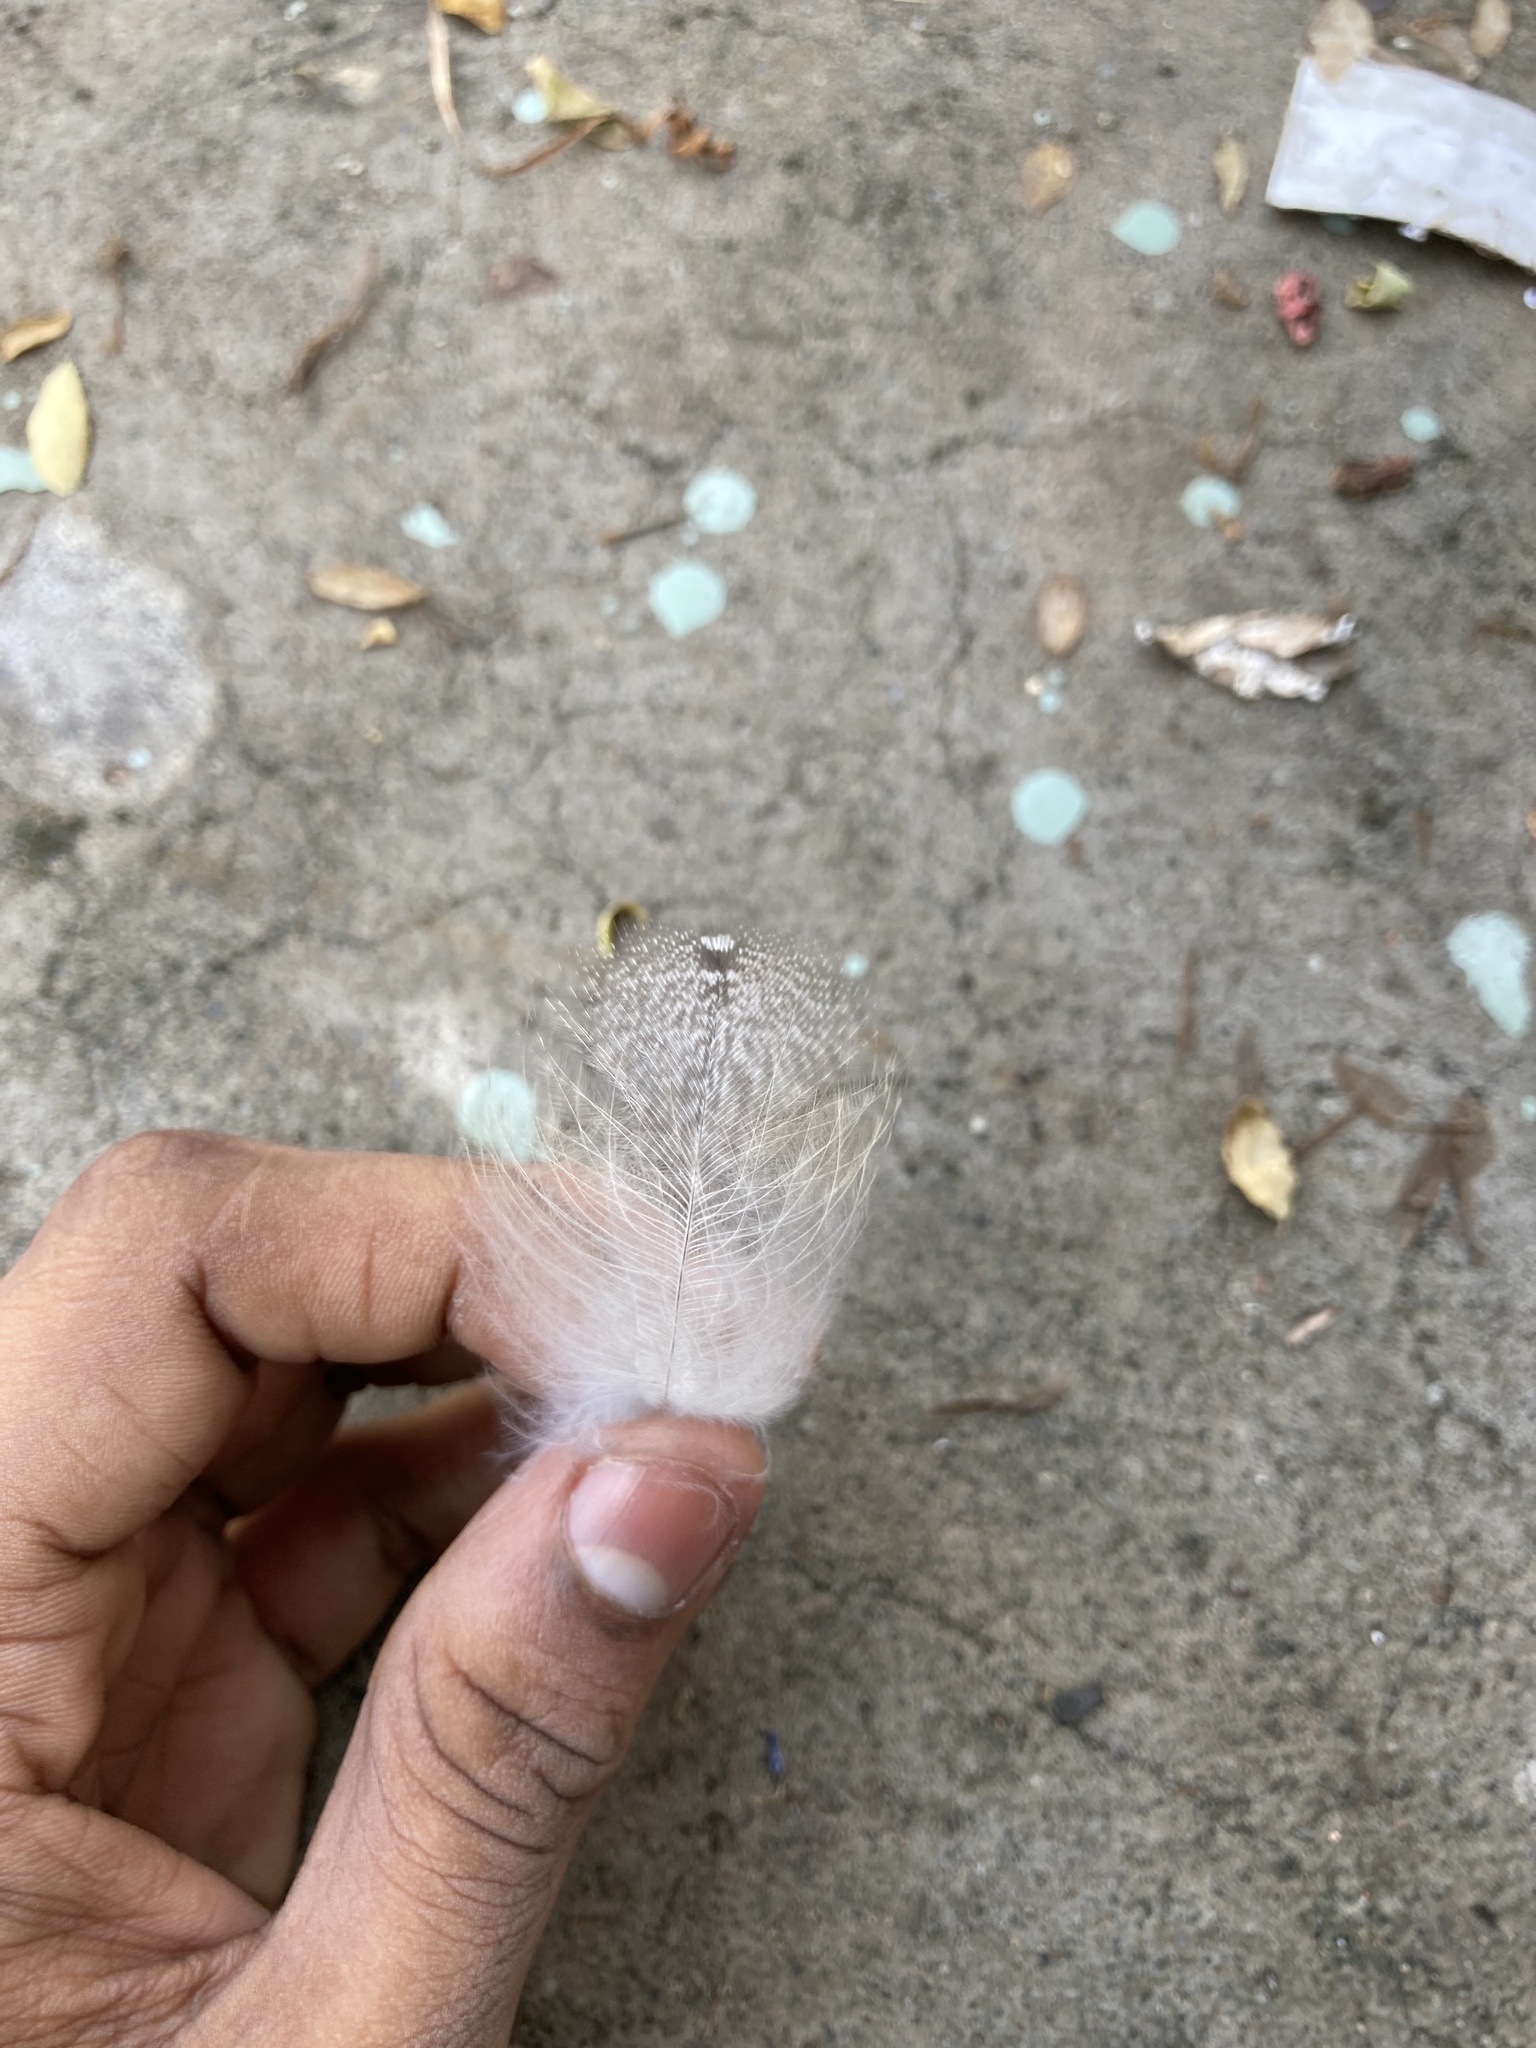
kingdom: Animalia
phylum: Chordata
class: Aves
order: Strigiformes
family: Tytonidae
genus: Tyto
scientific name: Tyto alba
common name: Barn owl
